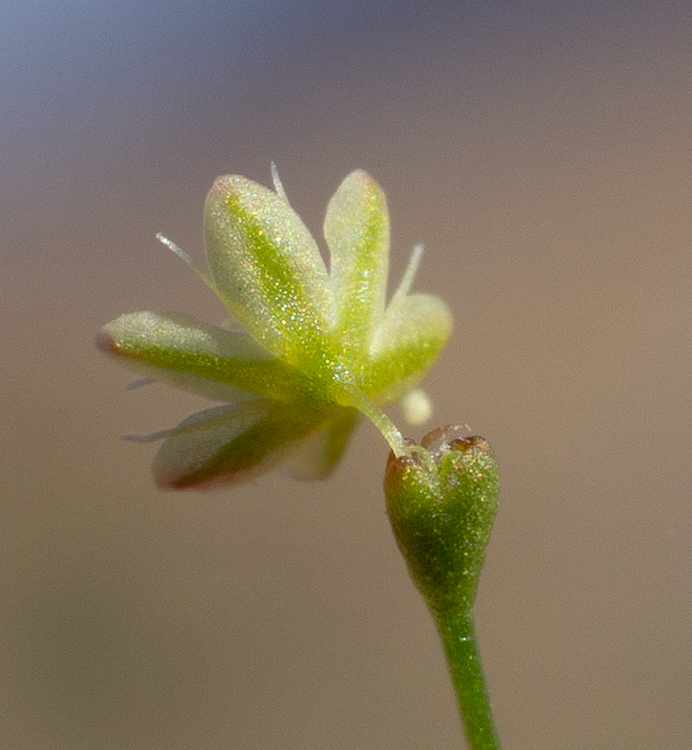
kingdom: Plantae
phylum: Tracheophyta
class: Magnoliopsida
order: Caryophyllales
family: Polygonaceae
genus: Eriogonum
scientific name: Eriogonum wetherillii
